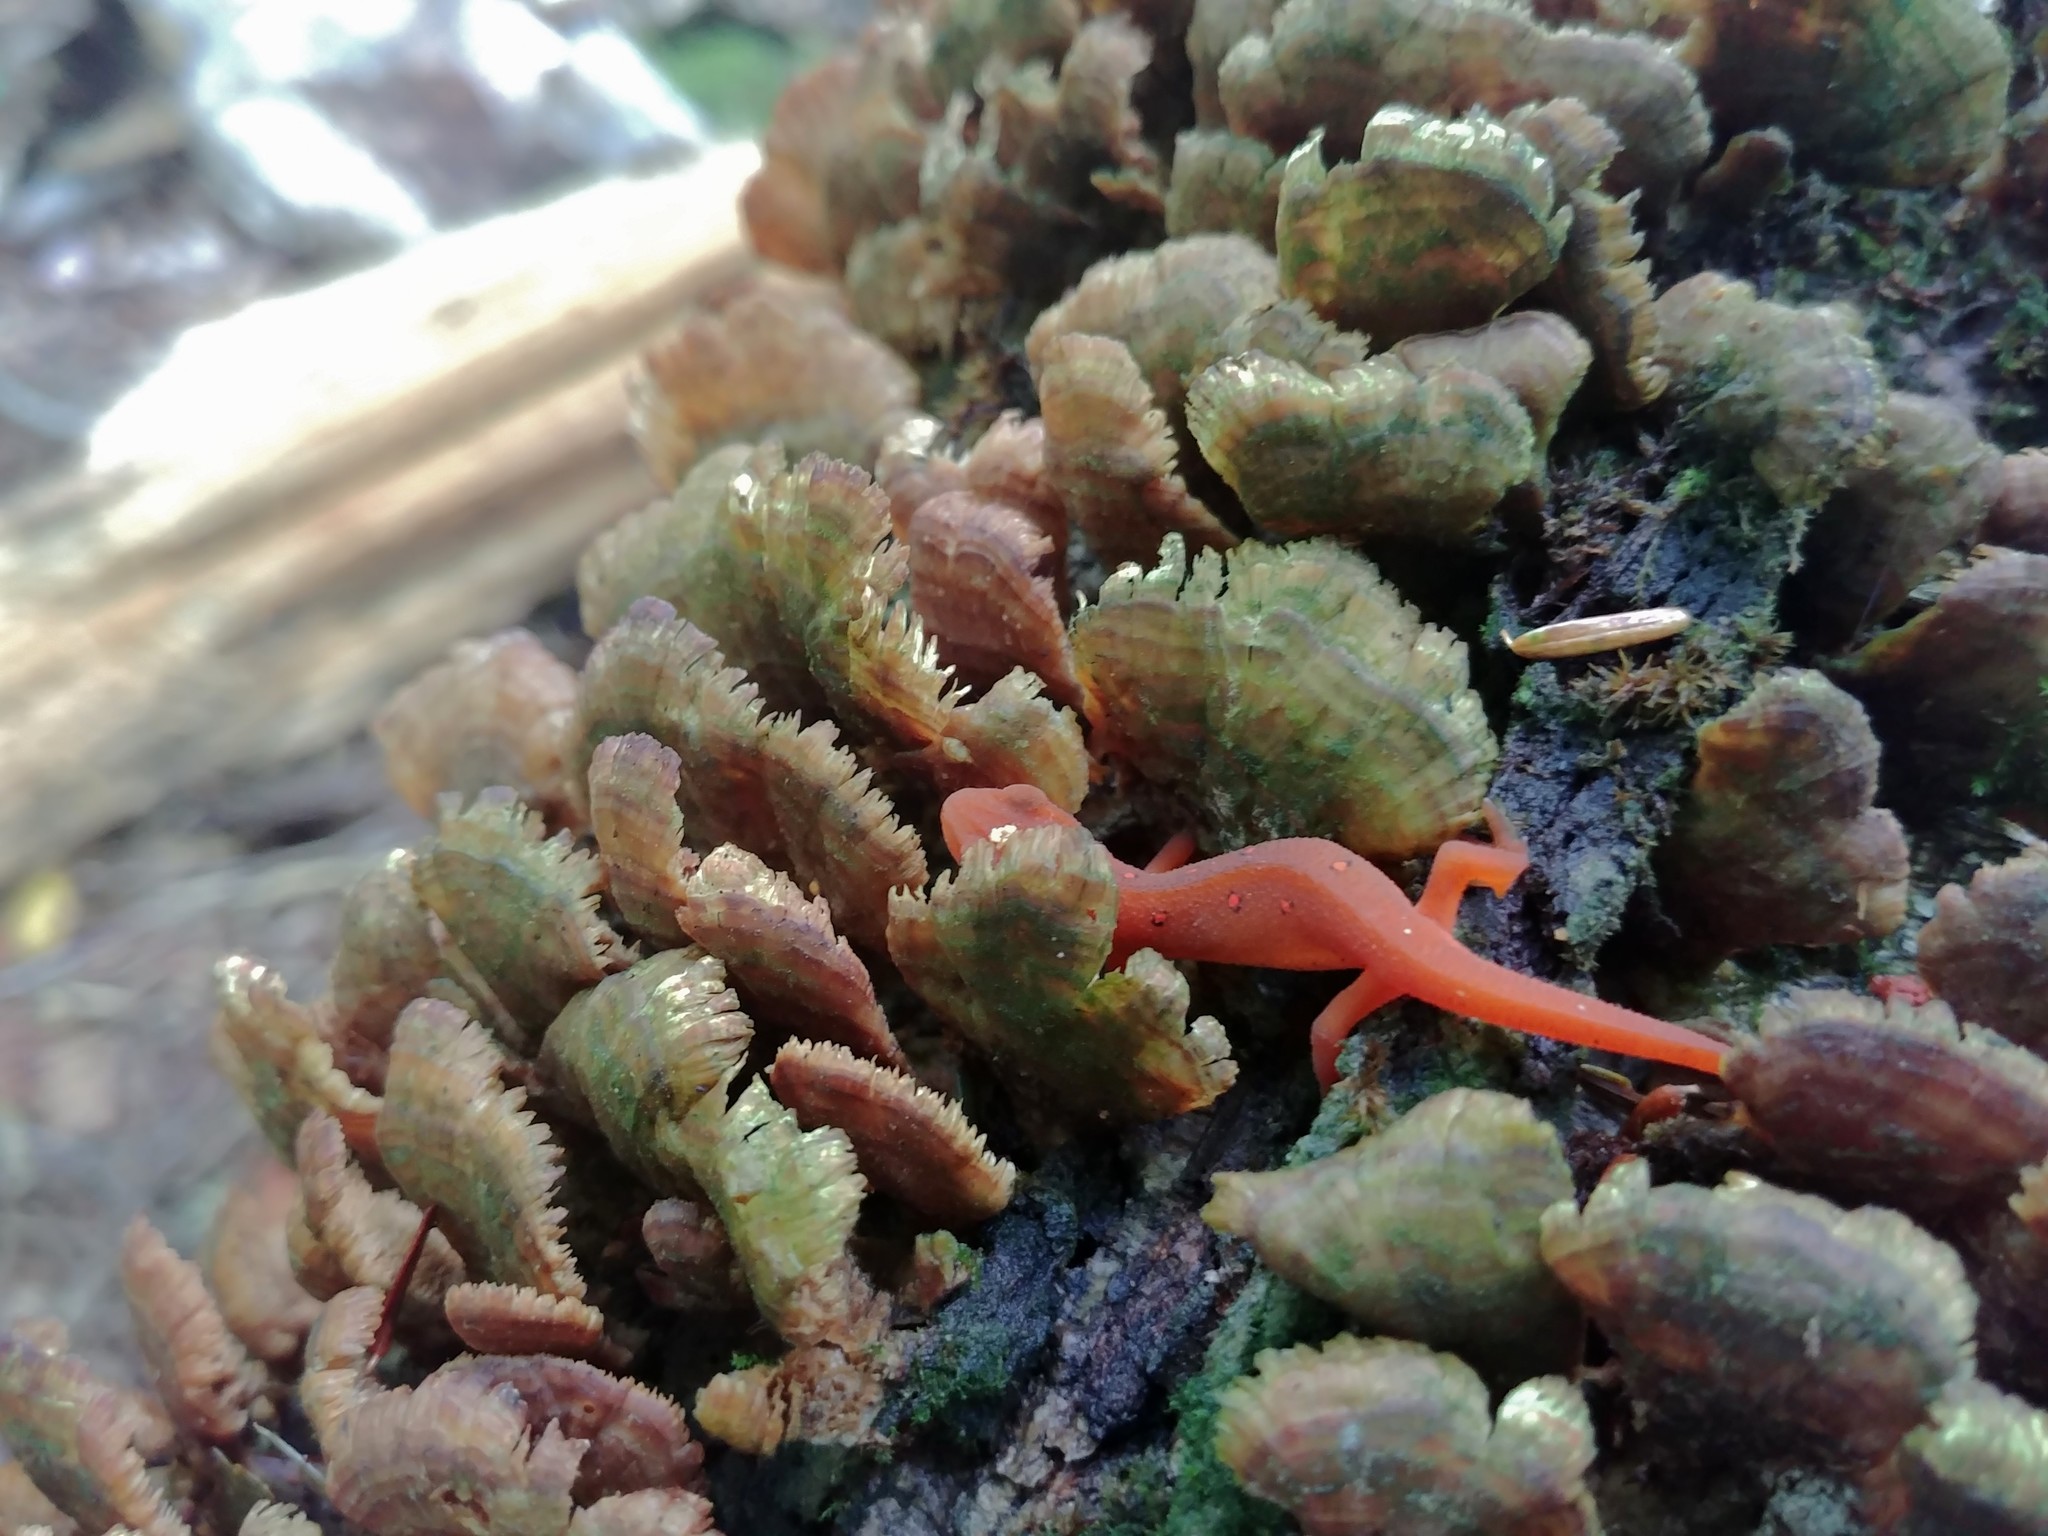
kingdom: Animalia
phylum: Chordata
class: Amphibia
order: Caudata
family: Salamandridae
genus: Notophthalmus
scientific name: Notophthalmus viridescens
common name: Eastern newt
